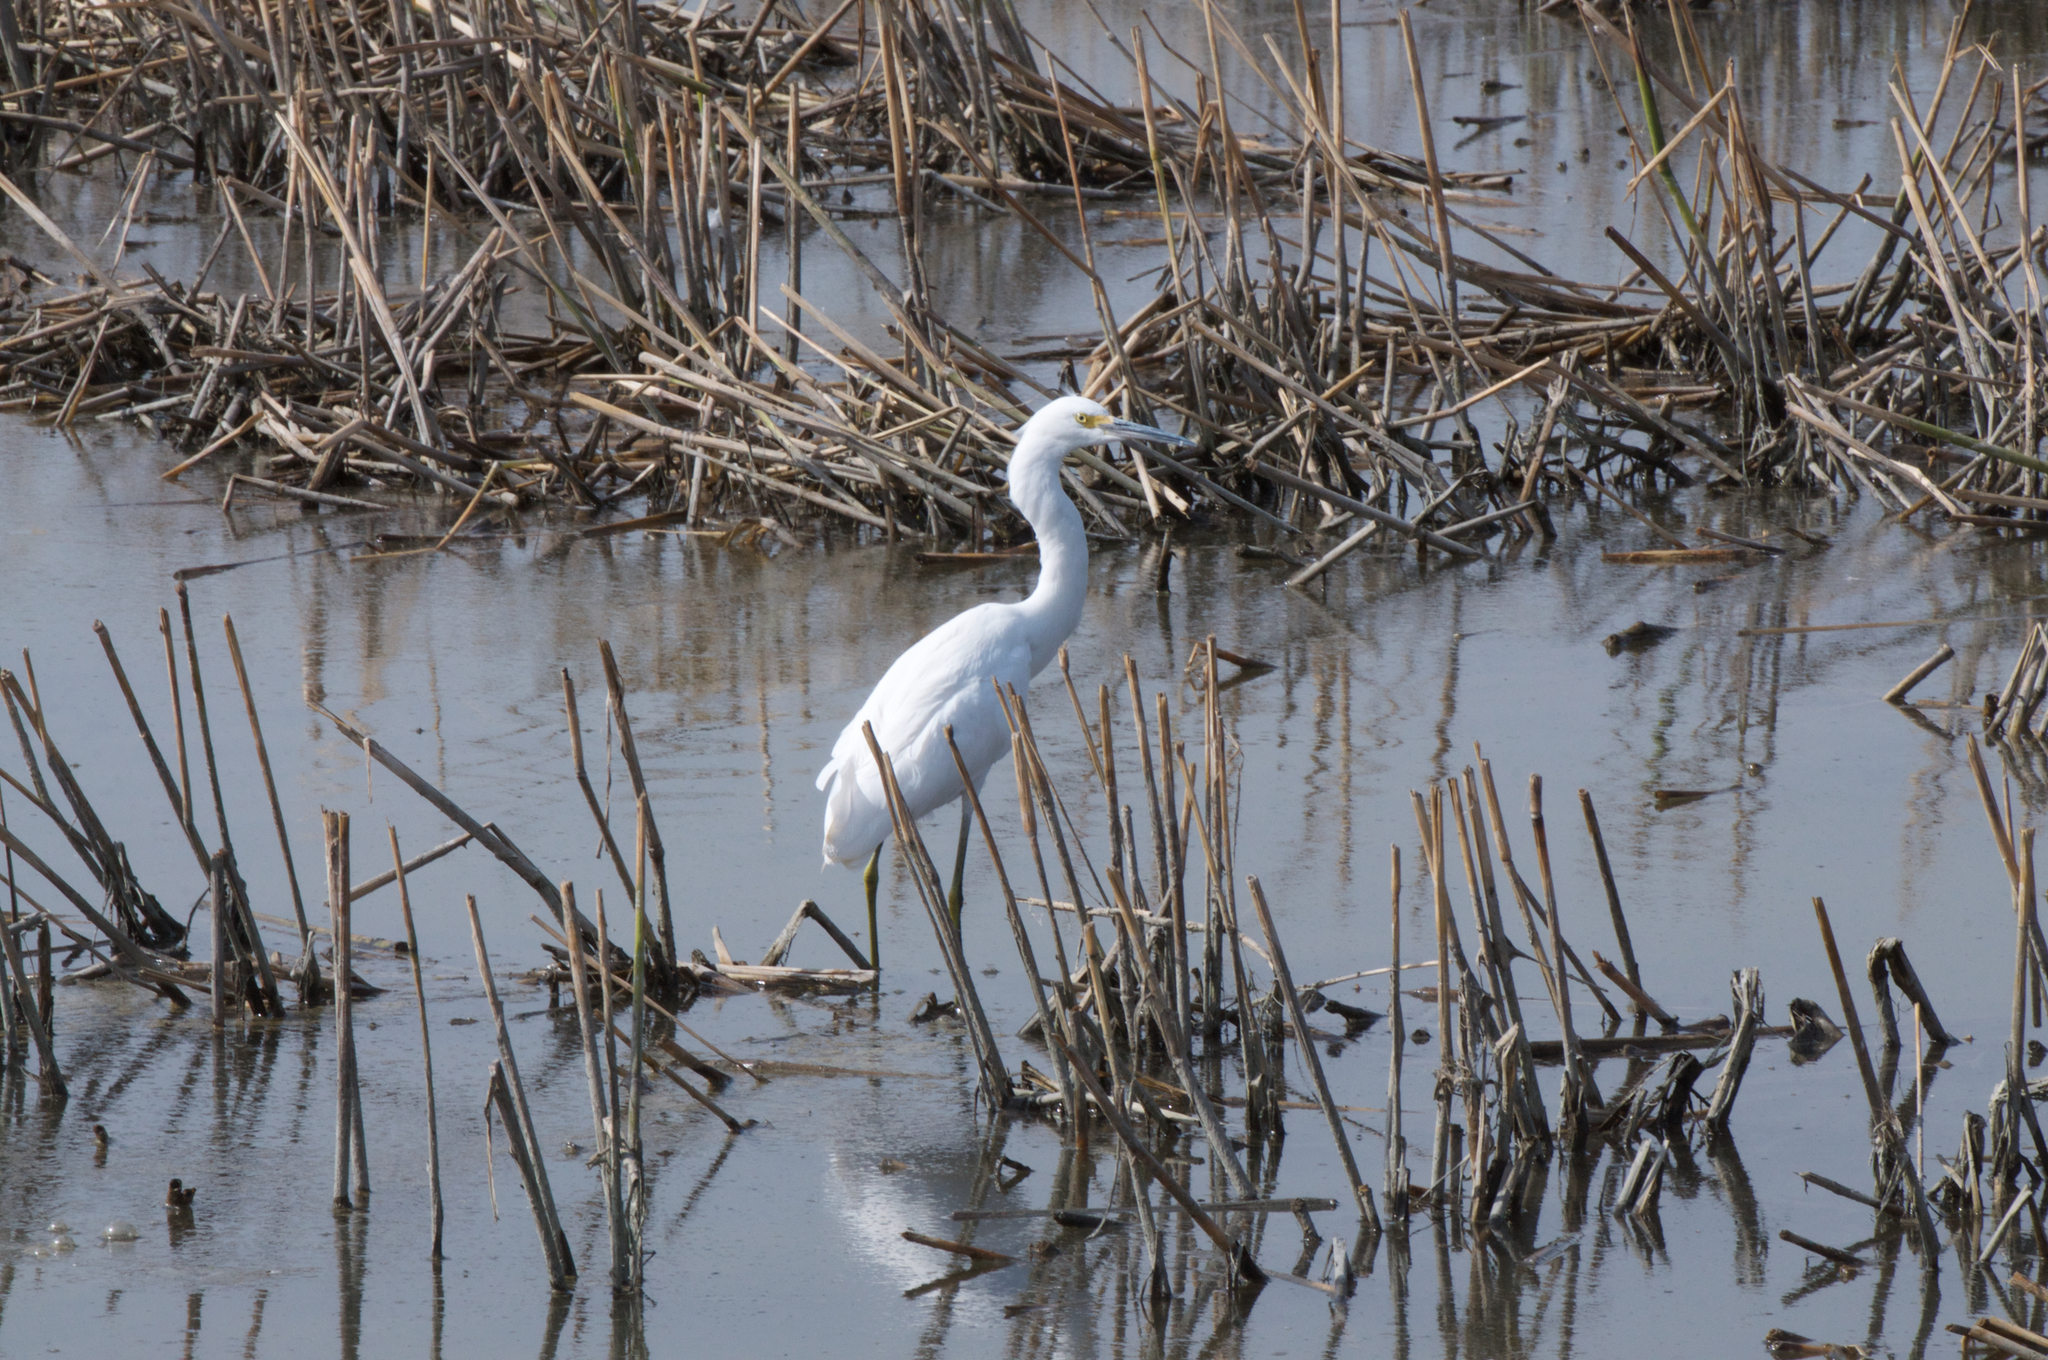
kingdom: Animalia
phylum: Chordata
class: Aves
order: Pelecaniformes
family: Ardeidae
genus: Egretta
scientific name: Egretta thula
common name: Snowy egret
